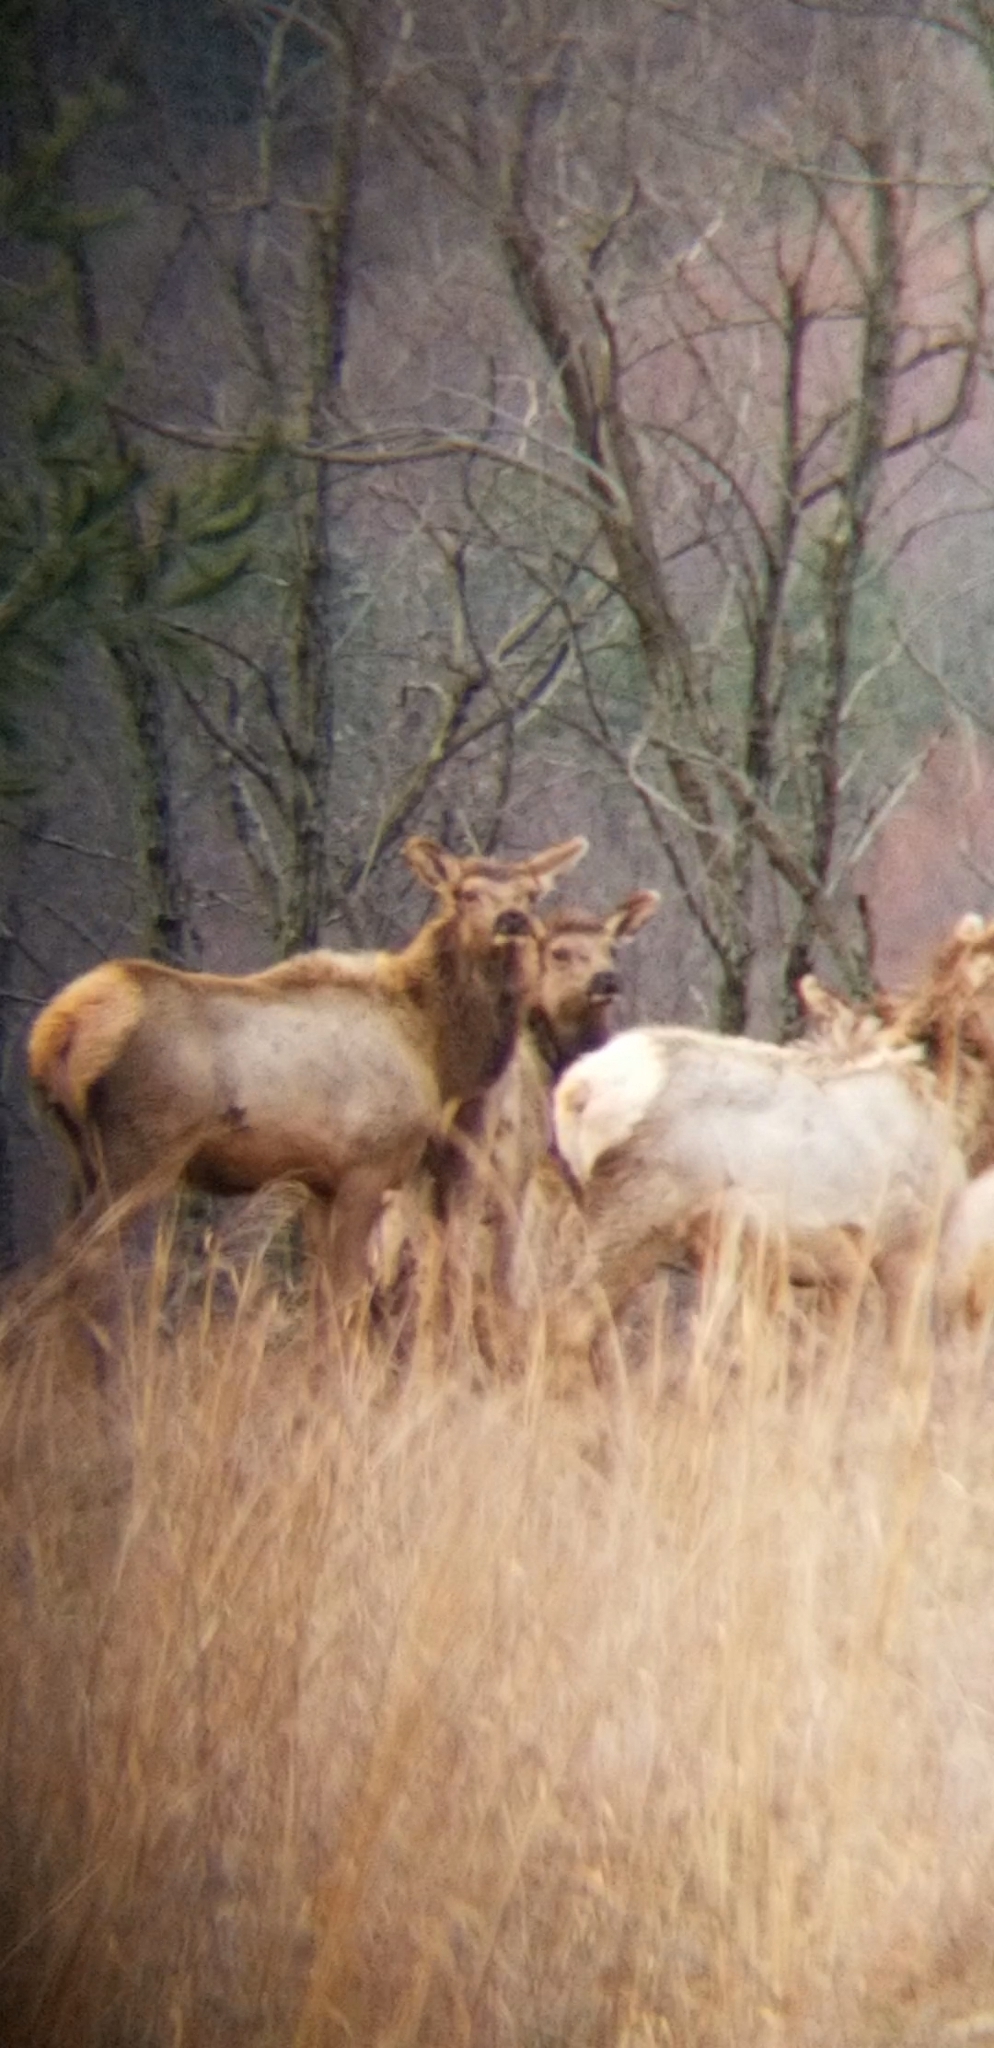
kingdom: Animalia
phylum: Chordata
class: Mammalia
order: Artiodactyla
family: Cervidae
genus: Cervus
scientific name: Cervus elaphus
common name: Red deer
